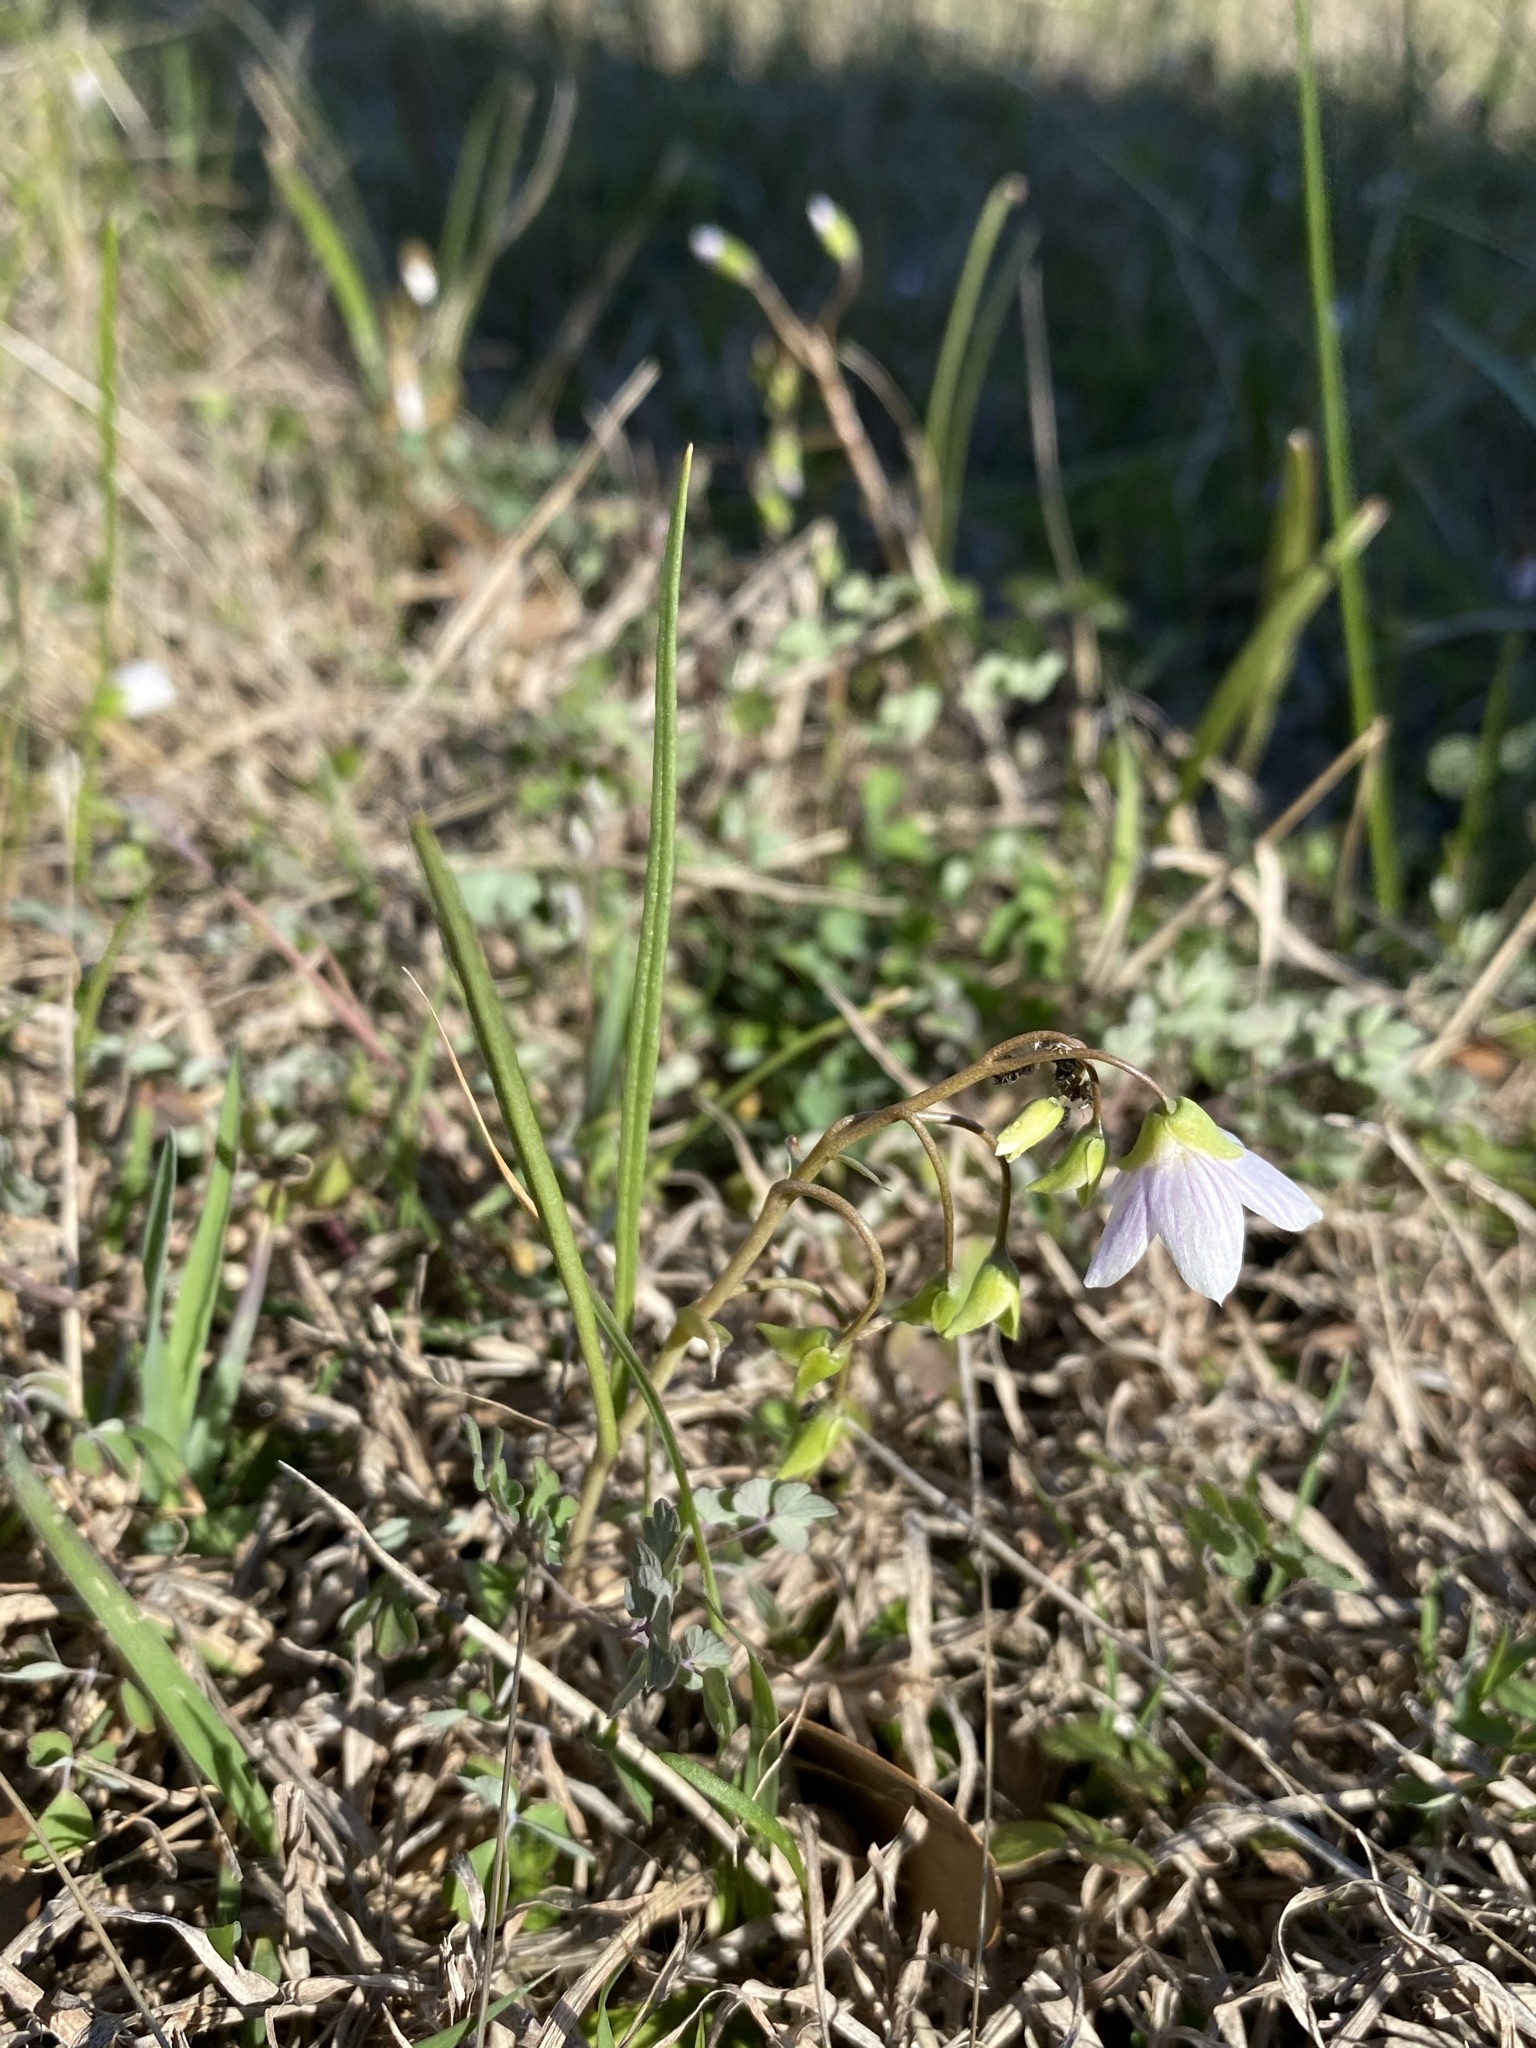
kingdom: Plantae
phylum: Tracheophyta
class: Magnoliopsida
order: Caryophyllales
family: Montiaceae
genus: Claytonia
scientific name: Claytonia virginica
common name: Virginia springbeauty
